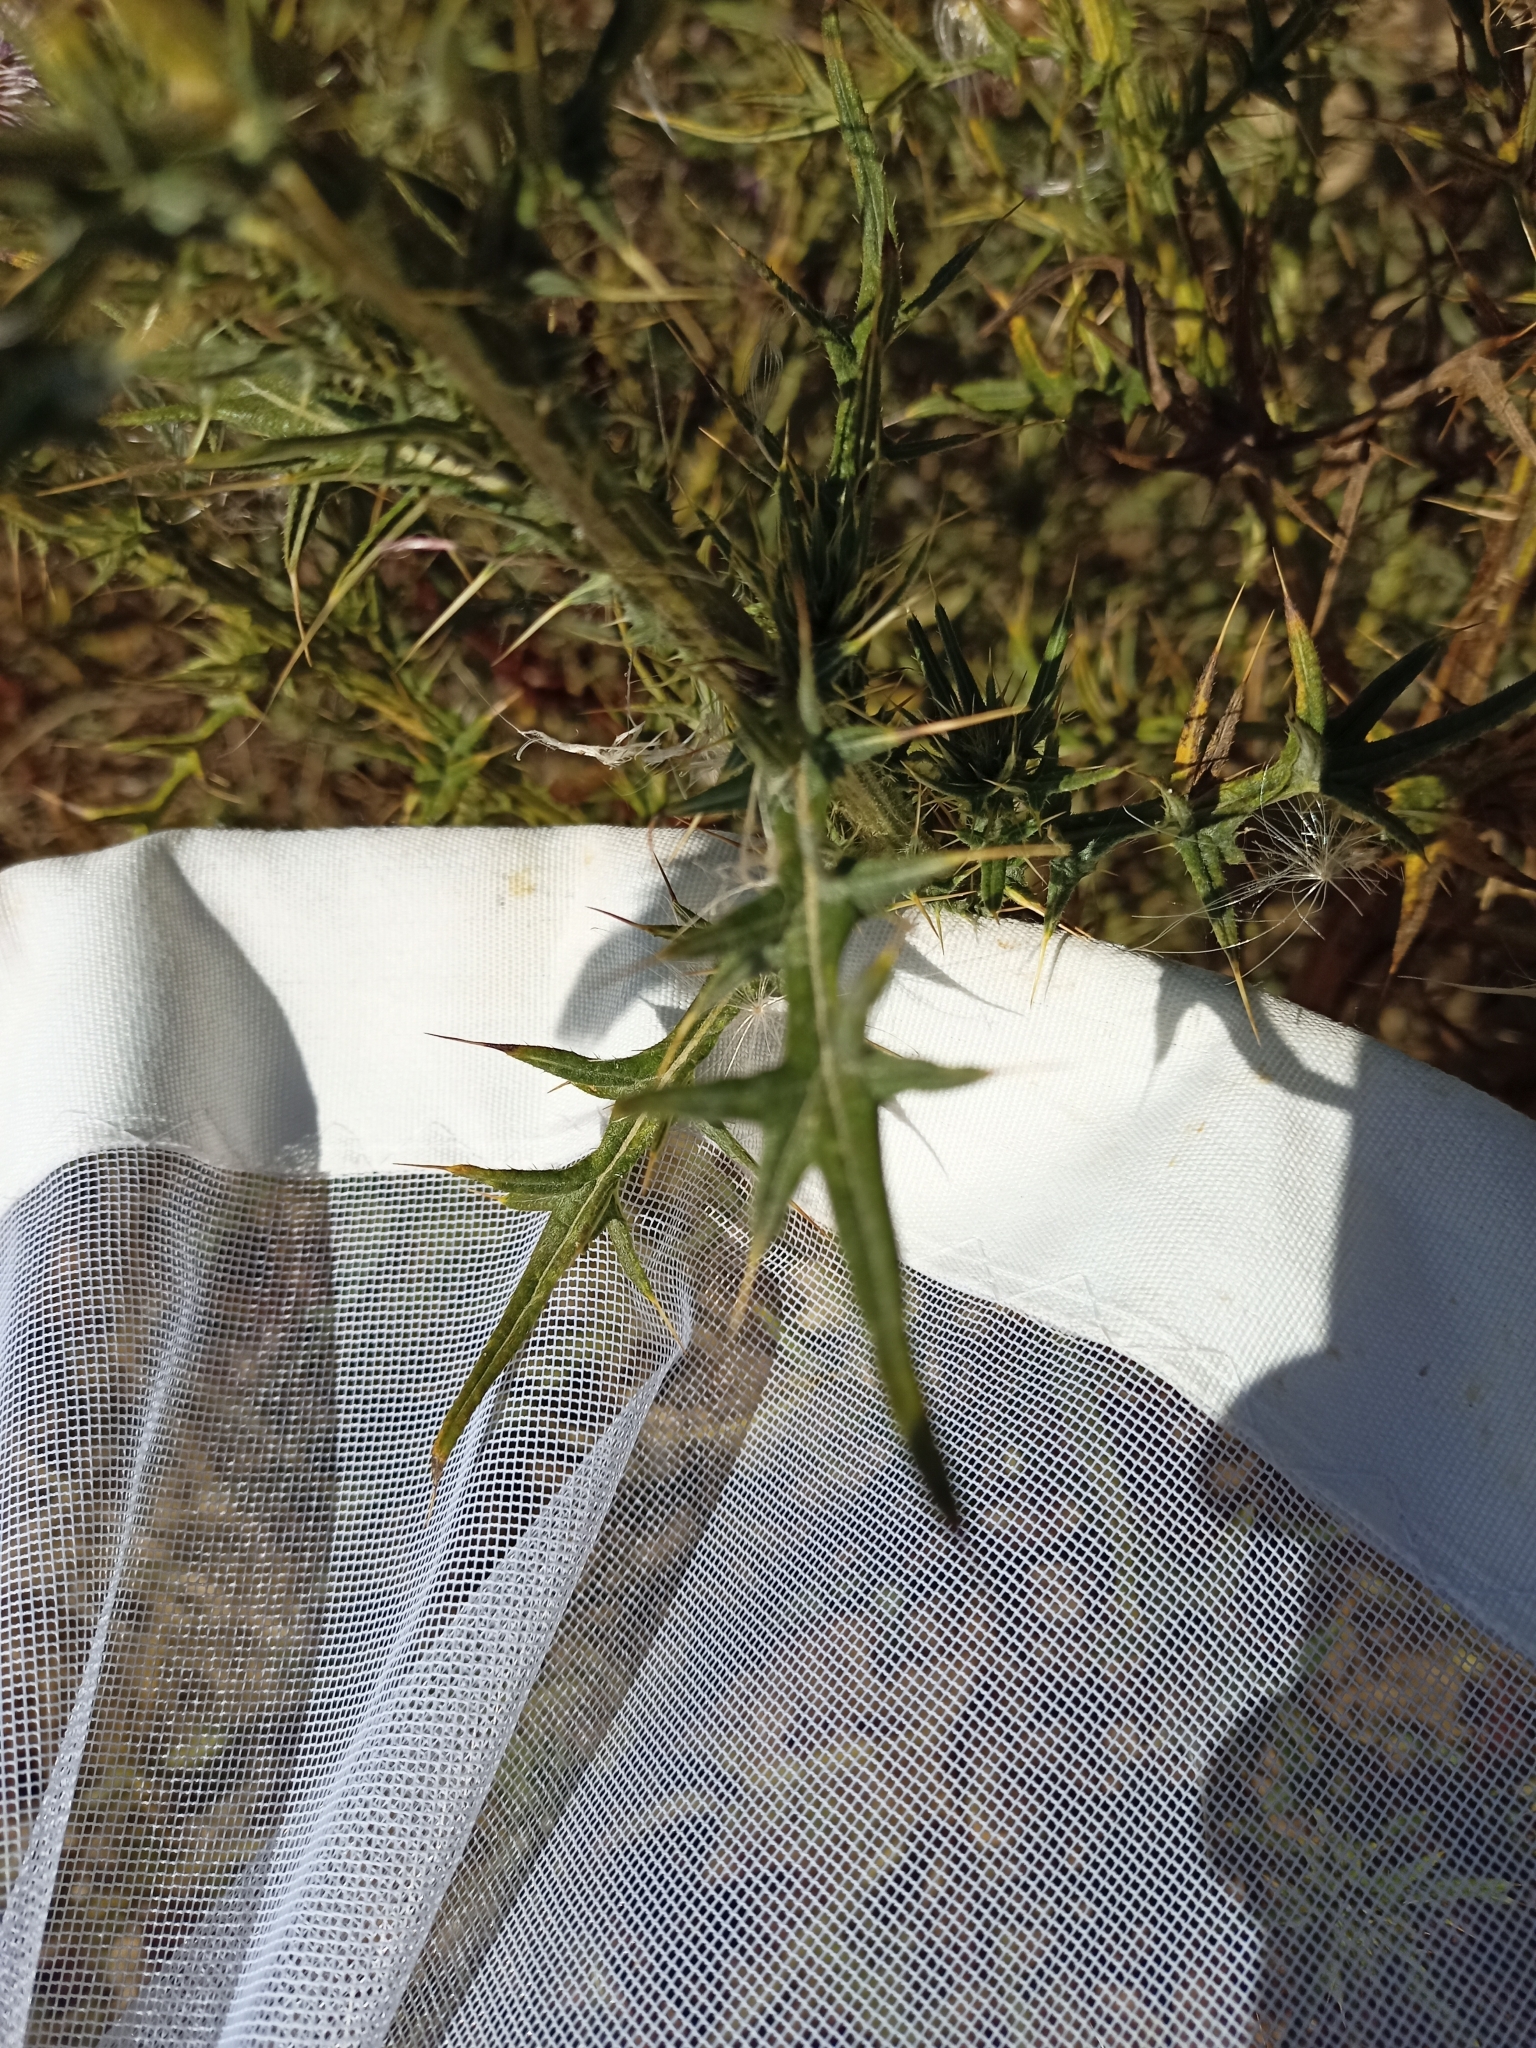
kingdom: Plantae
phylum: Tracheophyta
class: Magnoliopsida
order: Asterales
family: Asteraceae
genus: Cirsium
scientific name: Cirsium vulgare
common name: Bull thistle
